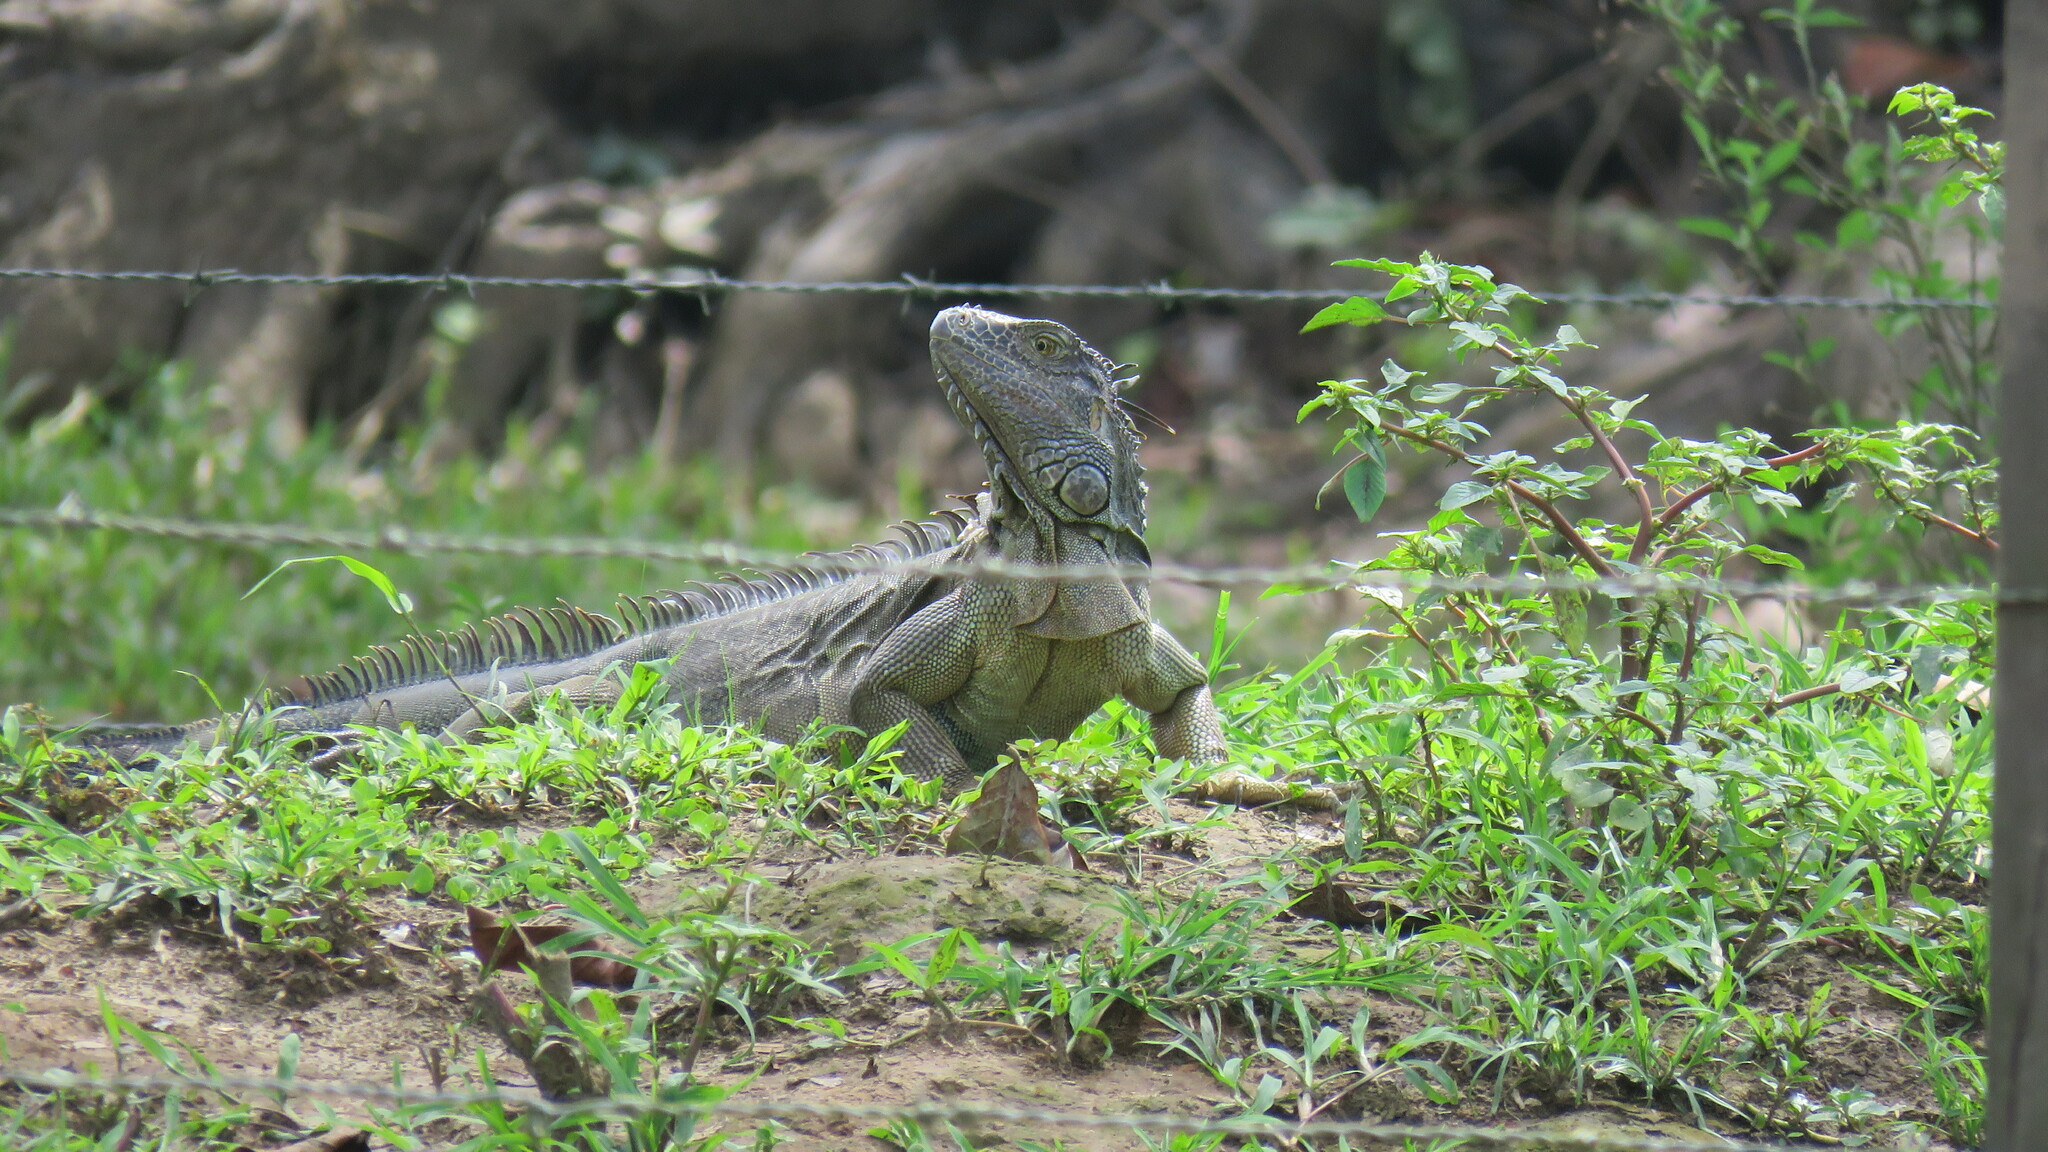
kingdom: Animalia
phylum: Chordata
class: Squamata
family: Iguanidae
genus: Iguana
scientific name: Iguana iguana
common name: Green iguana
